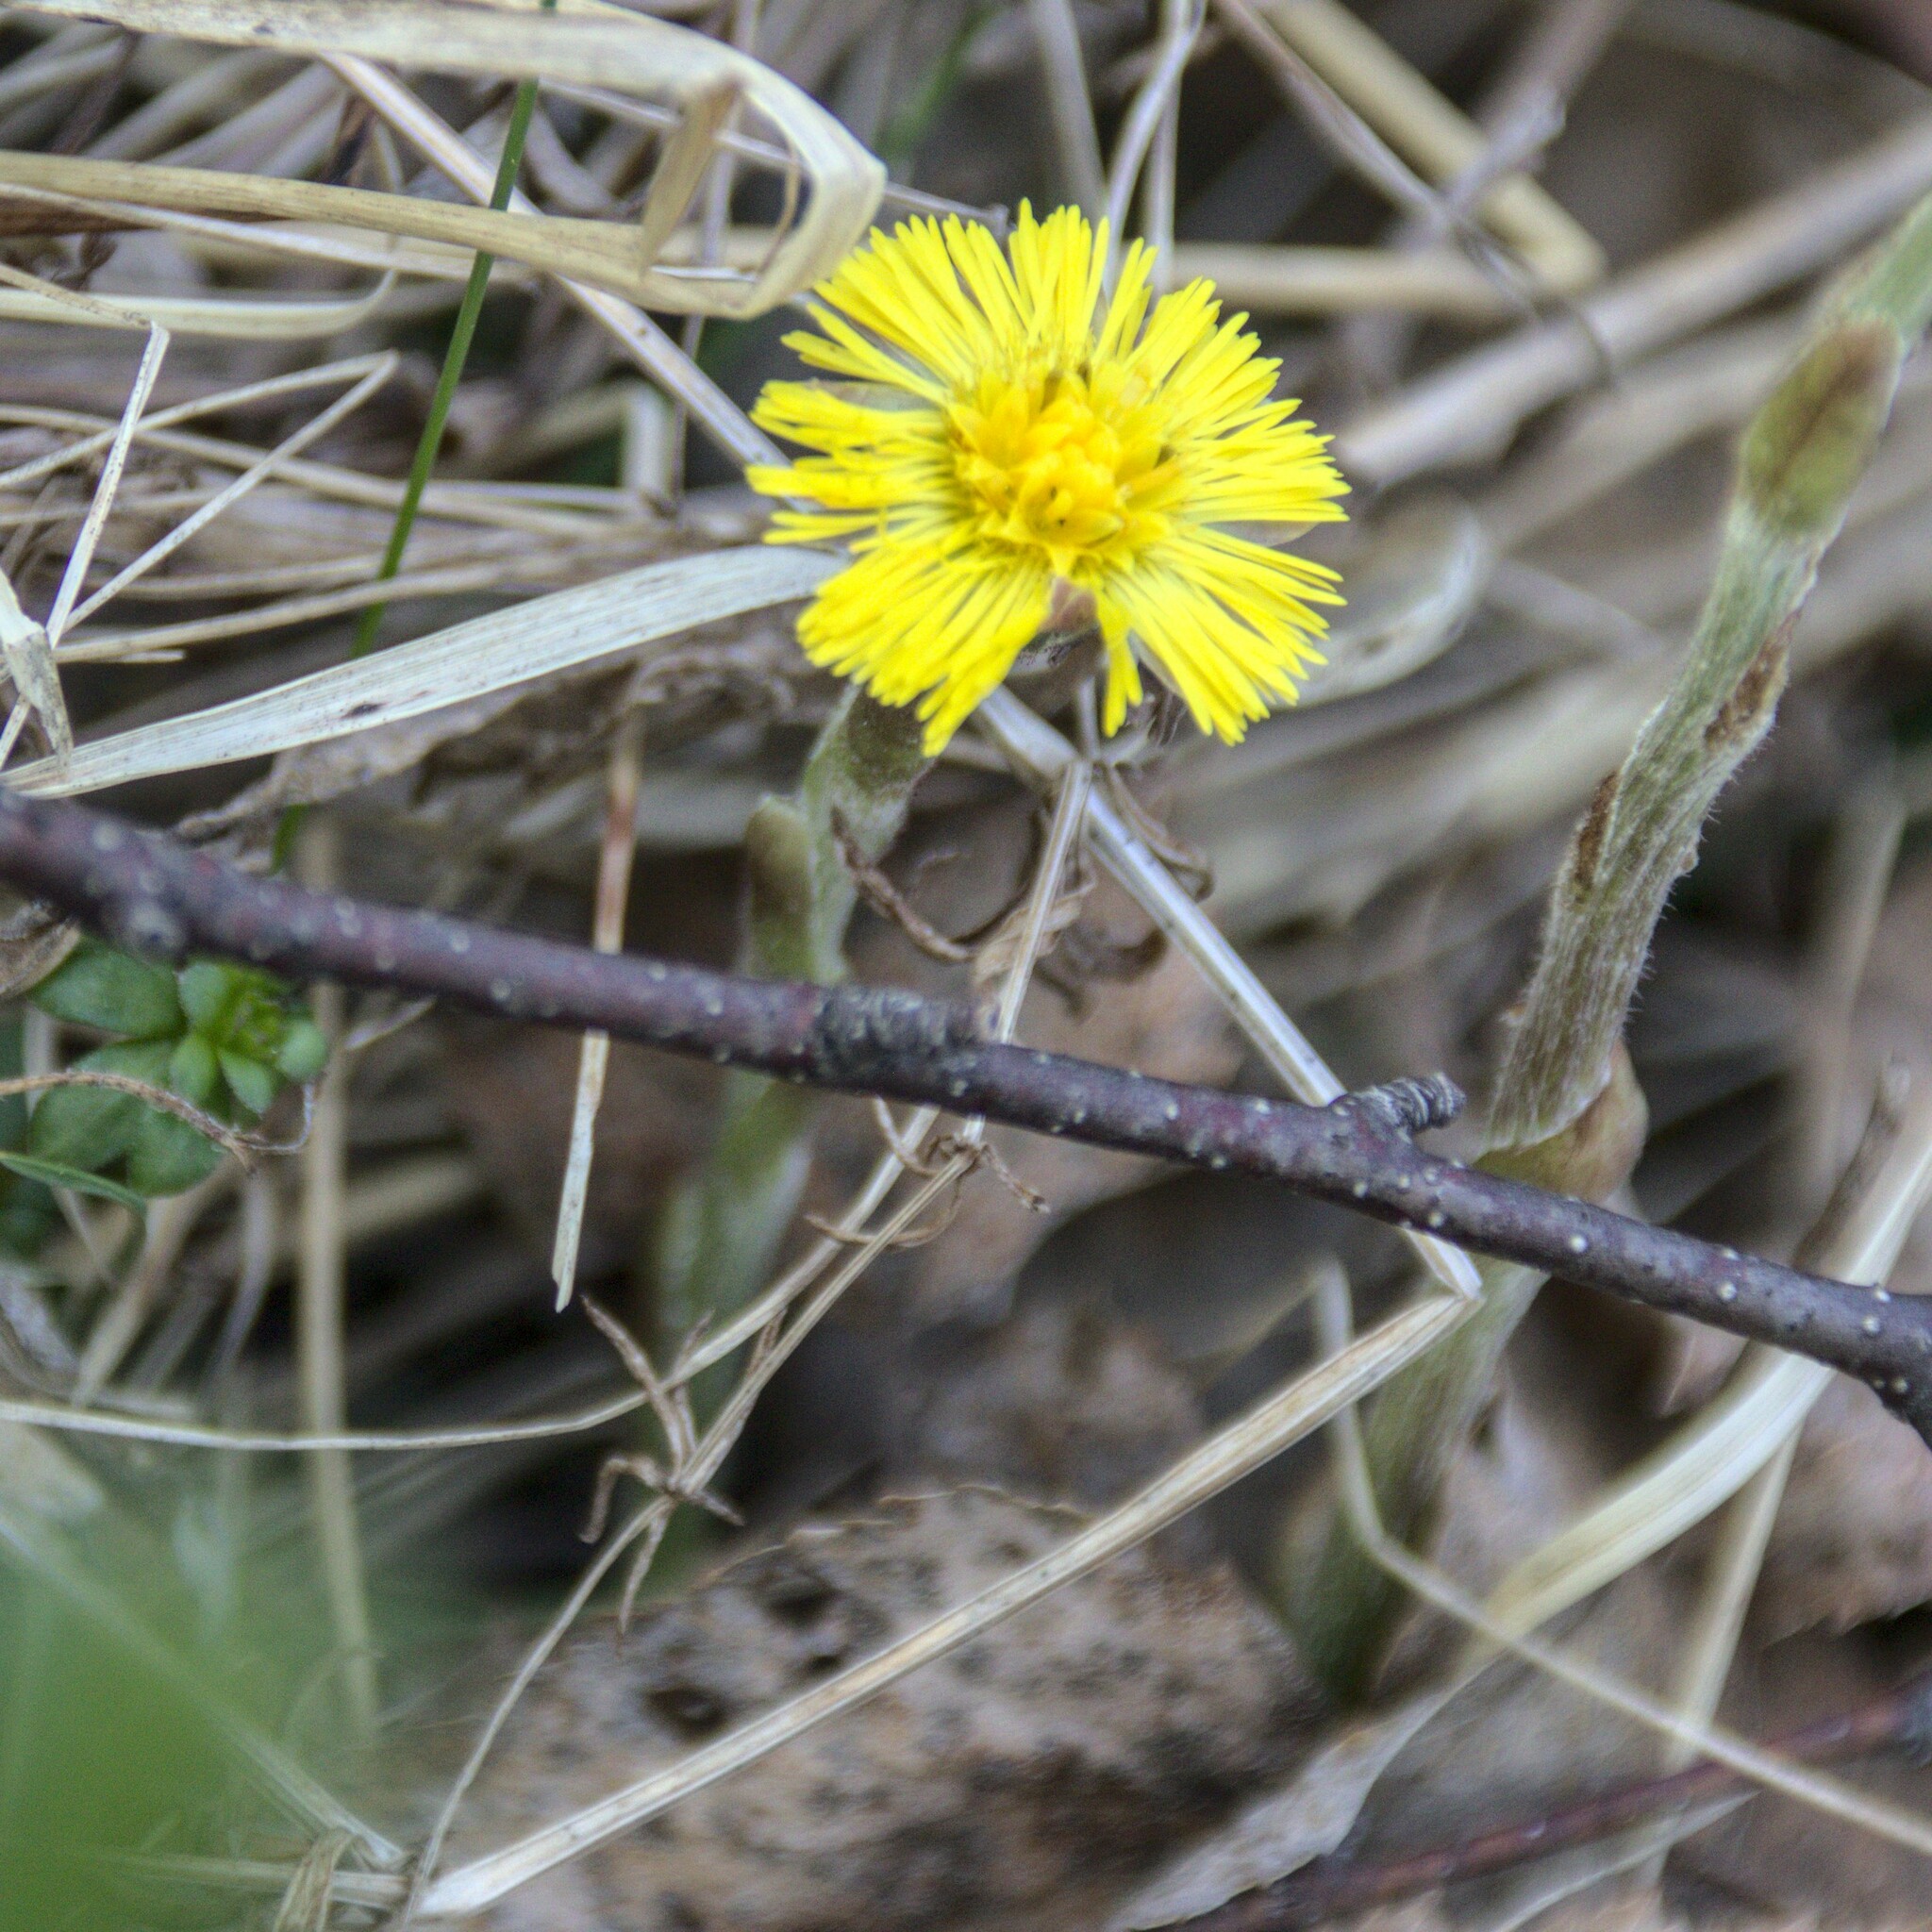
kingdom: Plantae
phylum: Tracheophyta
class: Magnoliopsida
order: Asterales
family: Asteraceae
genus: Tussilago
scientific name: Tussilago farfara
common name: Coltsfoot
